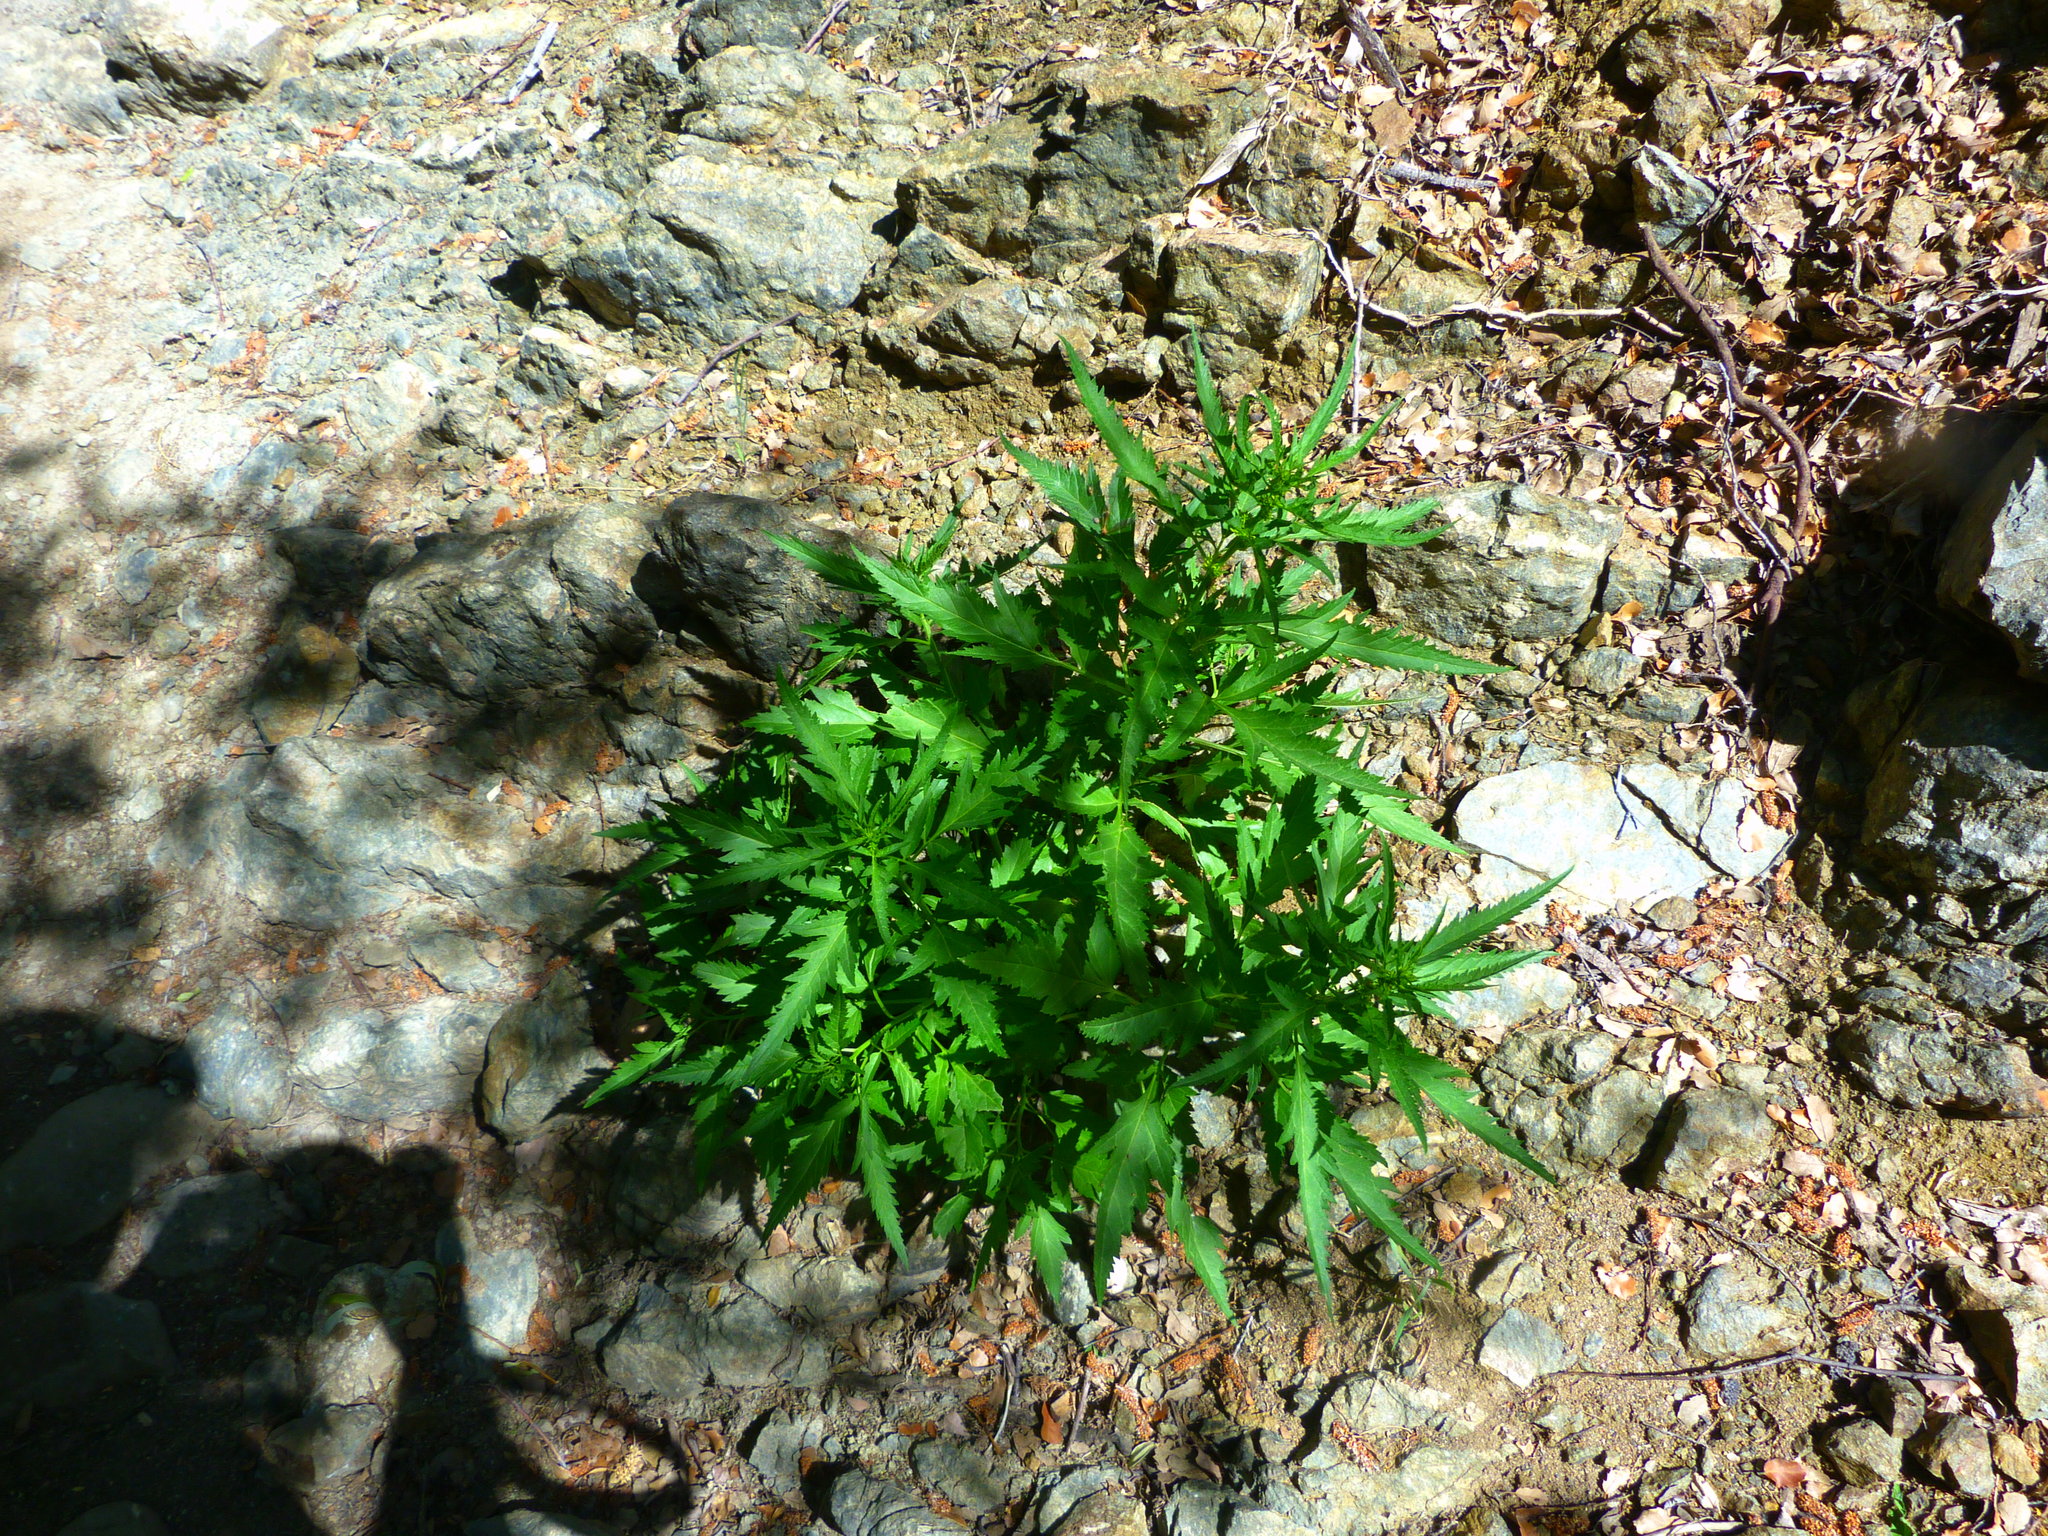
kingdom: Plantae
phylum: Tracheophyta
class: Magnoliopsida
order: Cucurbitales
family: Datiscaceae
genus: Datisca
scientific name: Datisca glomerata
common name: Durango-root
